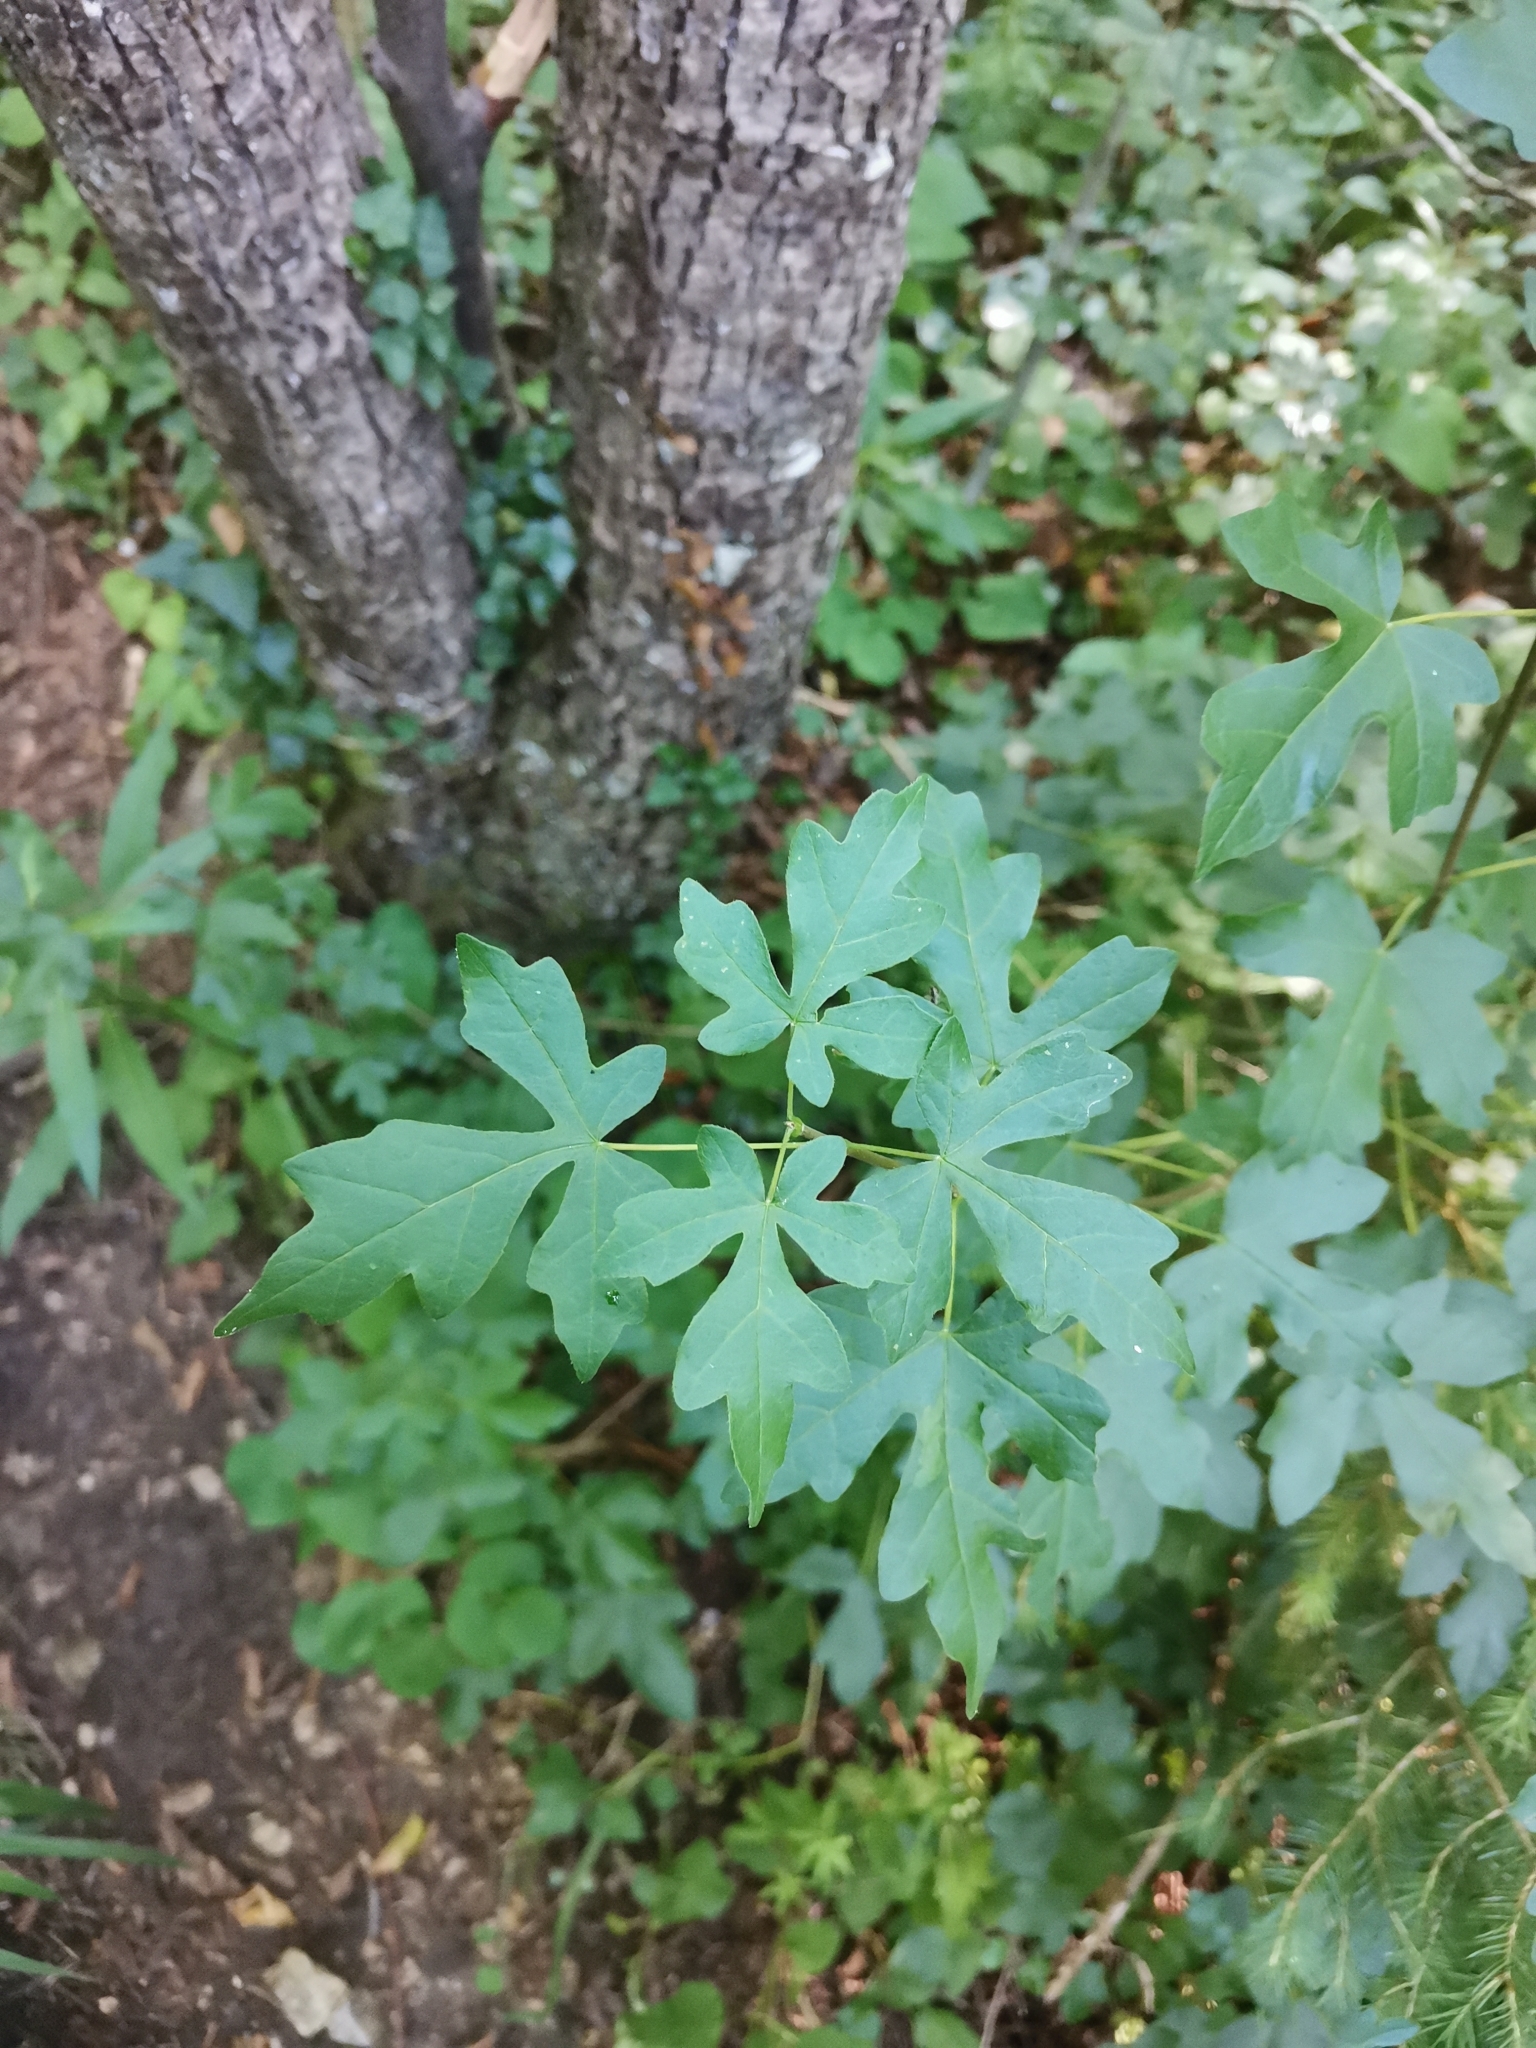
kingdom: Plantae
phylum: Tracheophyta
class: Magnoliopsida
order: Sapindales
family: Sapindaceae
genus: Acer
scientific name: Acer campestre
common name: Field maple
